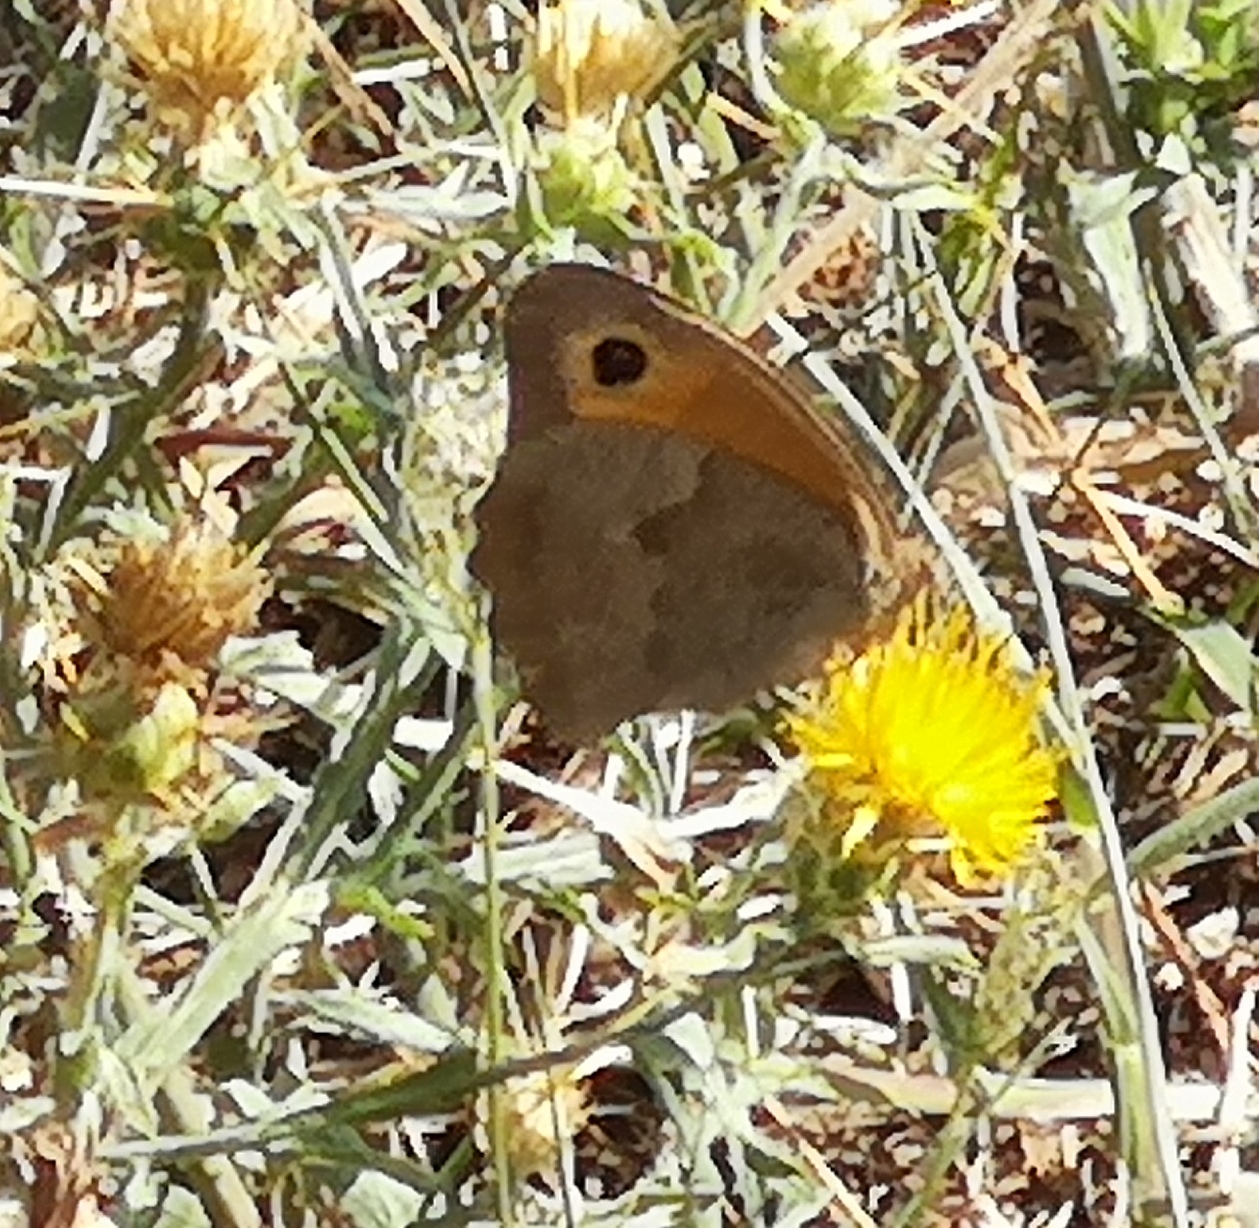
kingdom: Animalia
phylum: Arthropoda
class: Insecta
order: Lepidoptera
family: Nymphalidae
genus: Maniola
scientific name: Maniola jurtina
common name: Meadow brown
